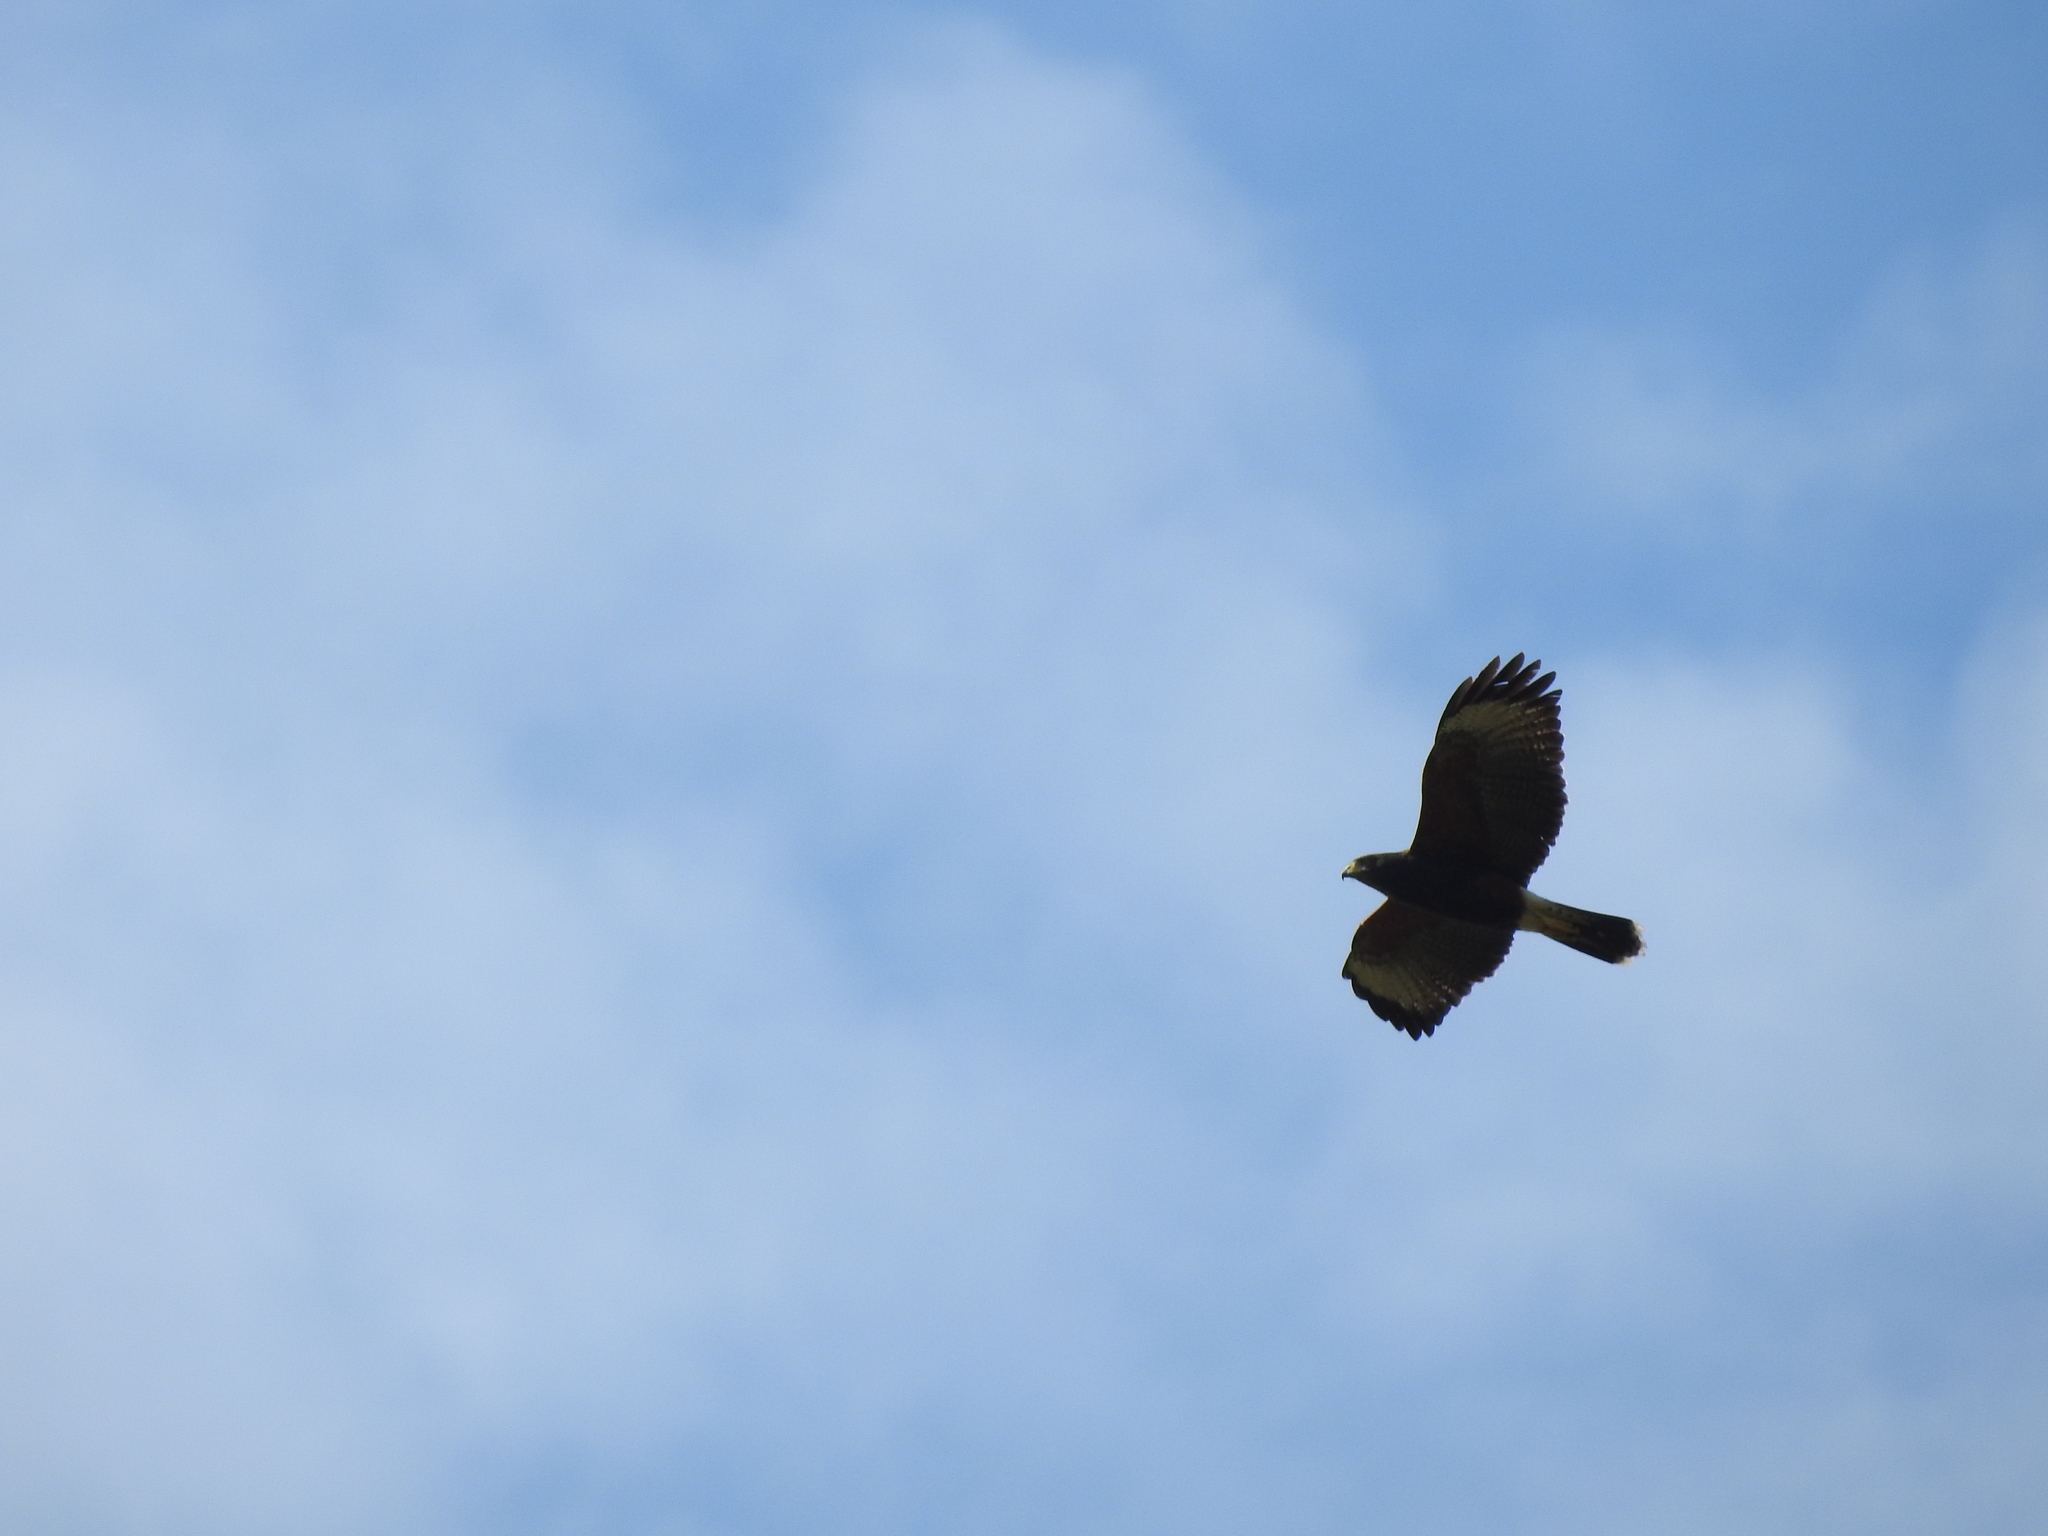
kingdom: Animalia
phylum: Chordata
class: Aves
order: Accipitriformes
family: Accipitridae
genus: Parabuteo
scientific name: Parabuteo unicinctus
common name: Harris's hawk
